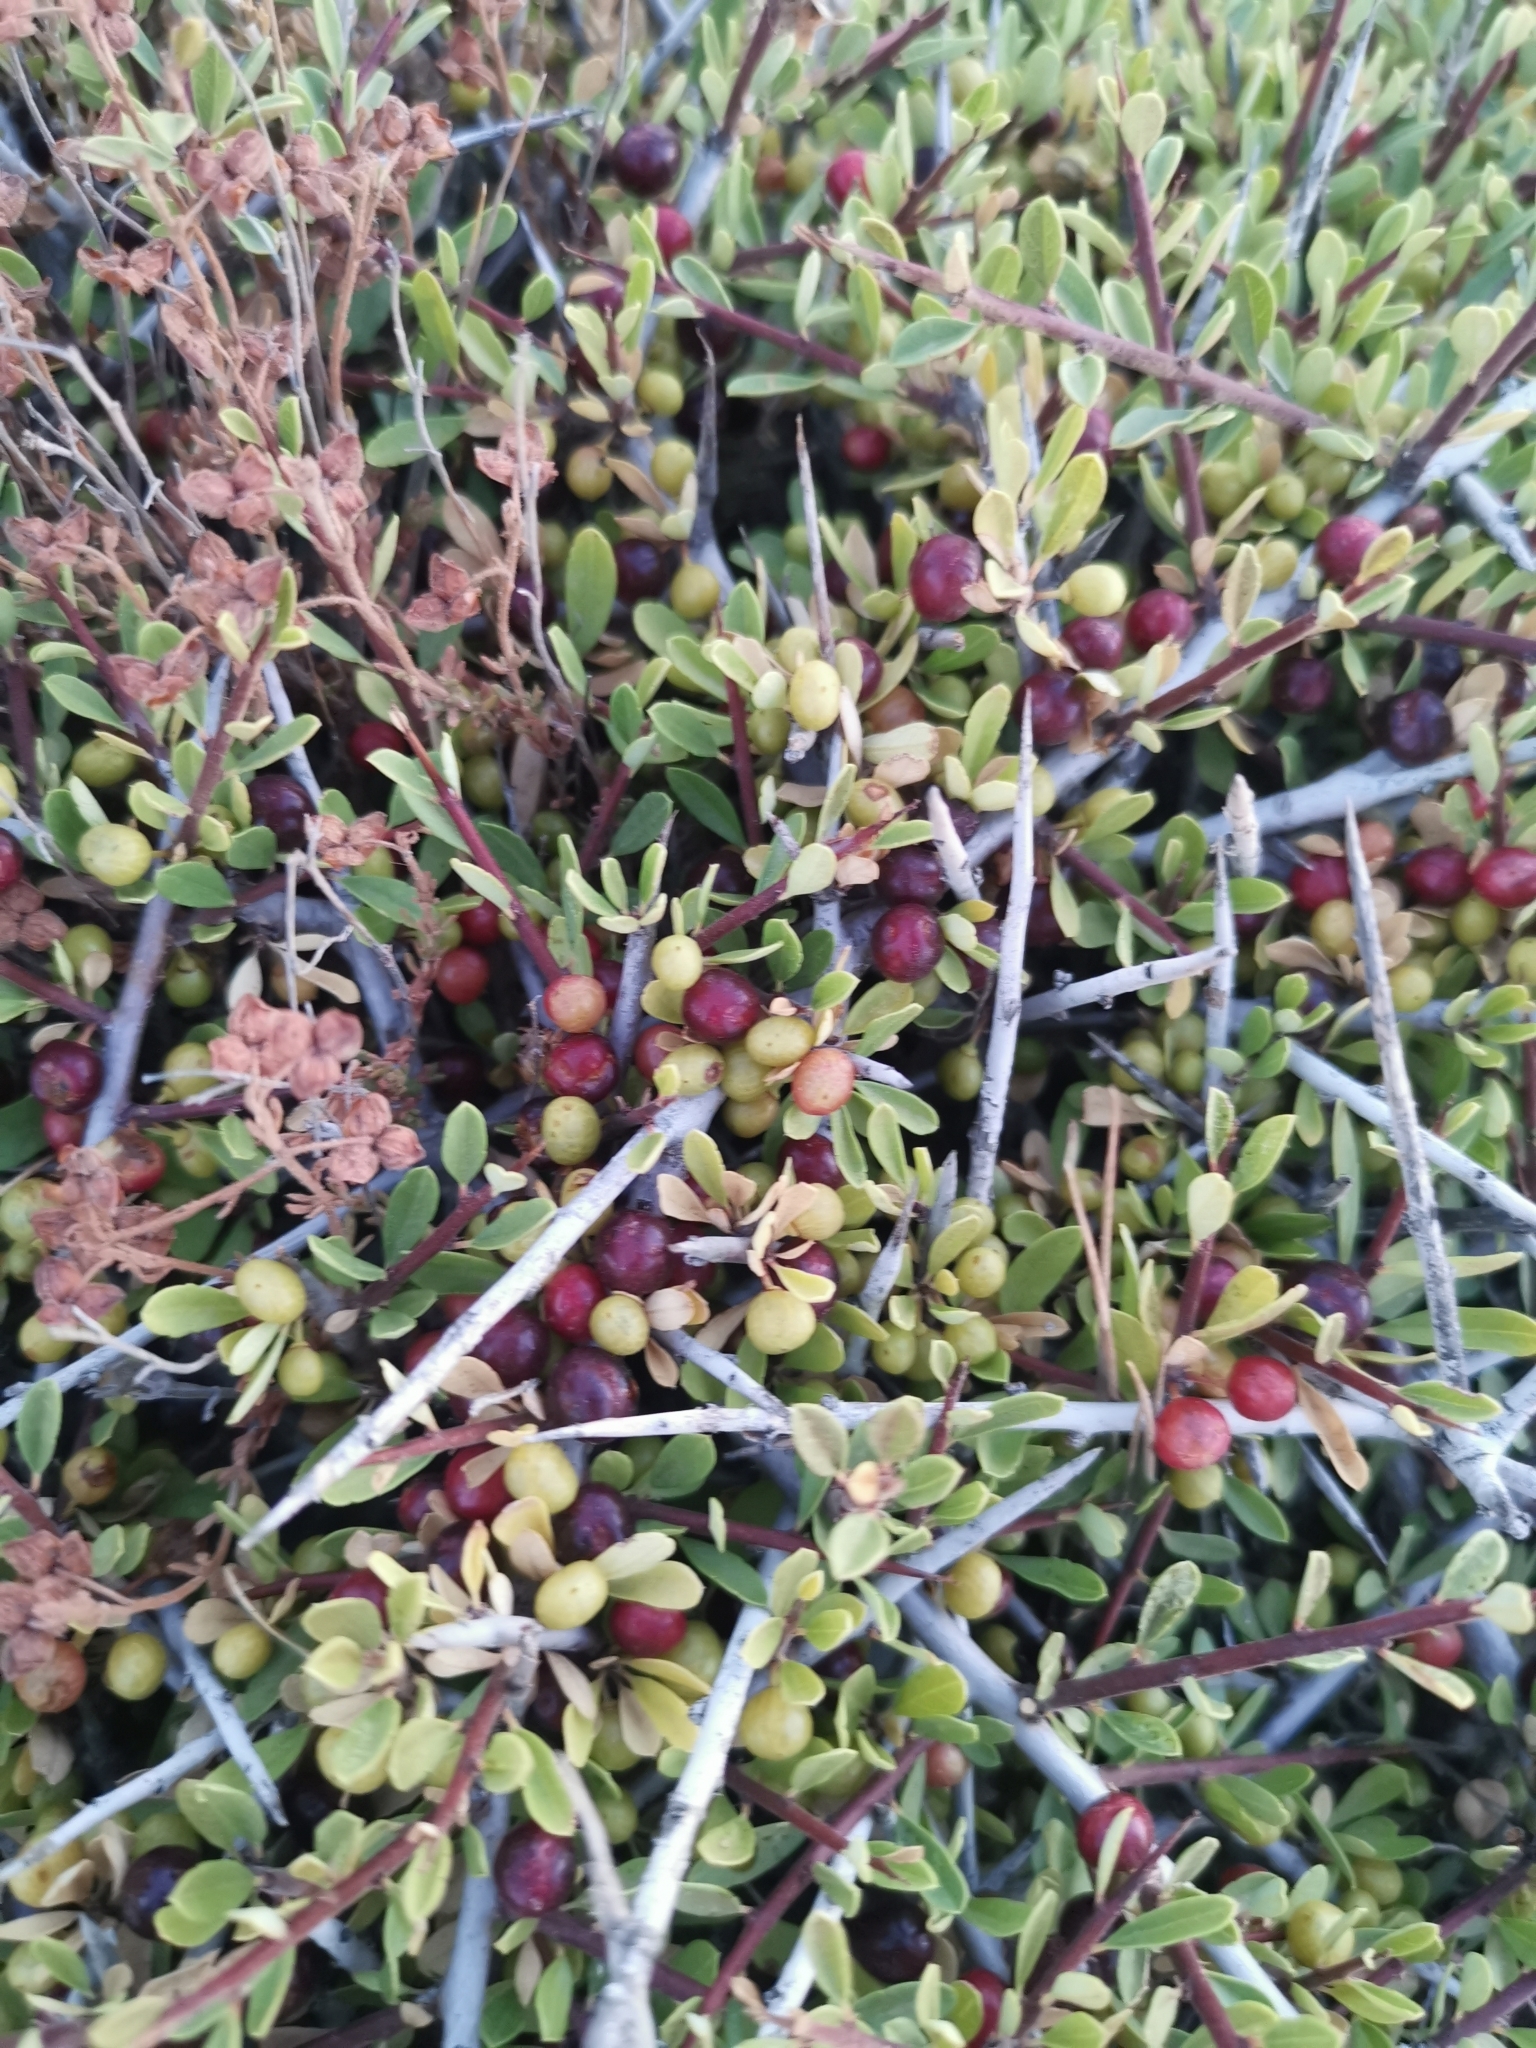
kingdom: Plantae
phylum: Tracheophyta
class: Magnoliopsida
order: Rosales
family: Rhamnaceae
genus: Rhamnus
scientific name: Rhamnus oleoides
